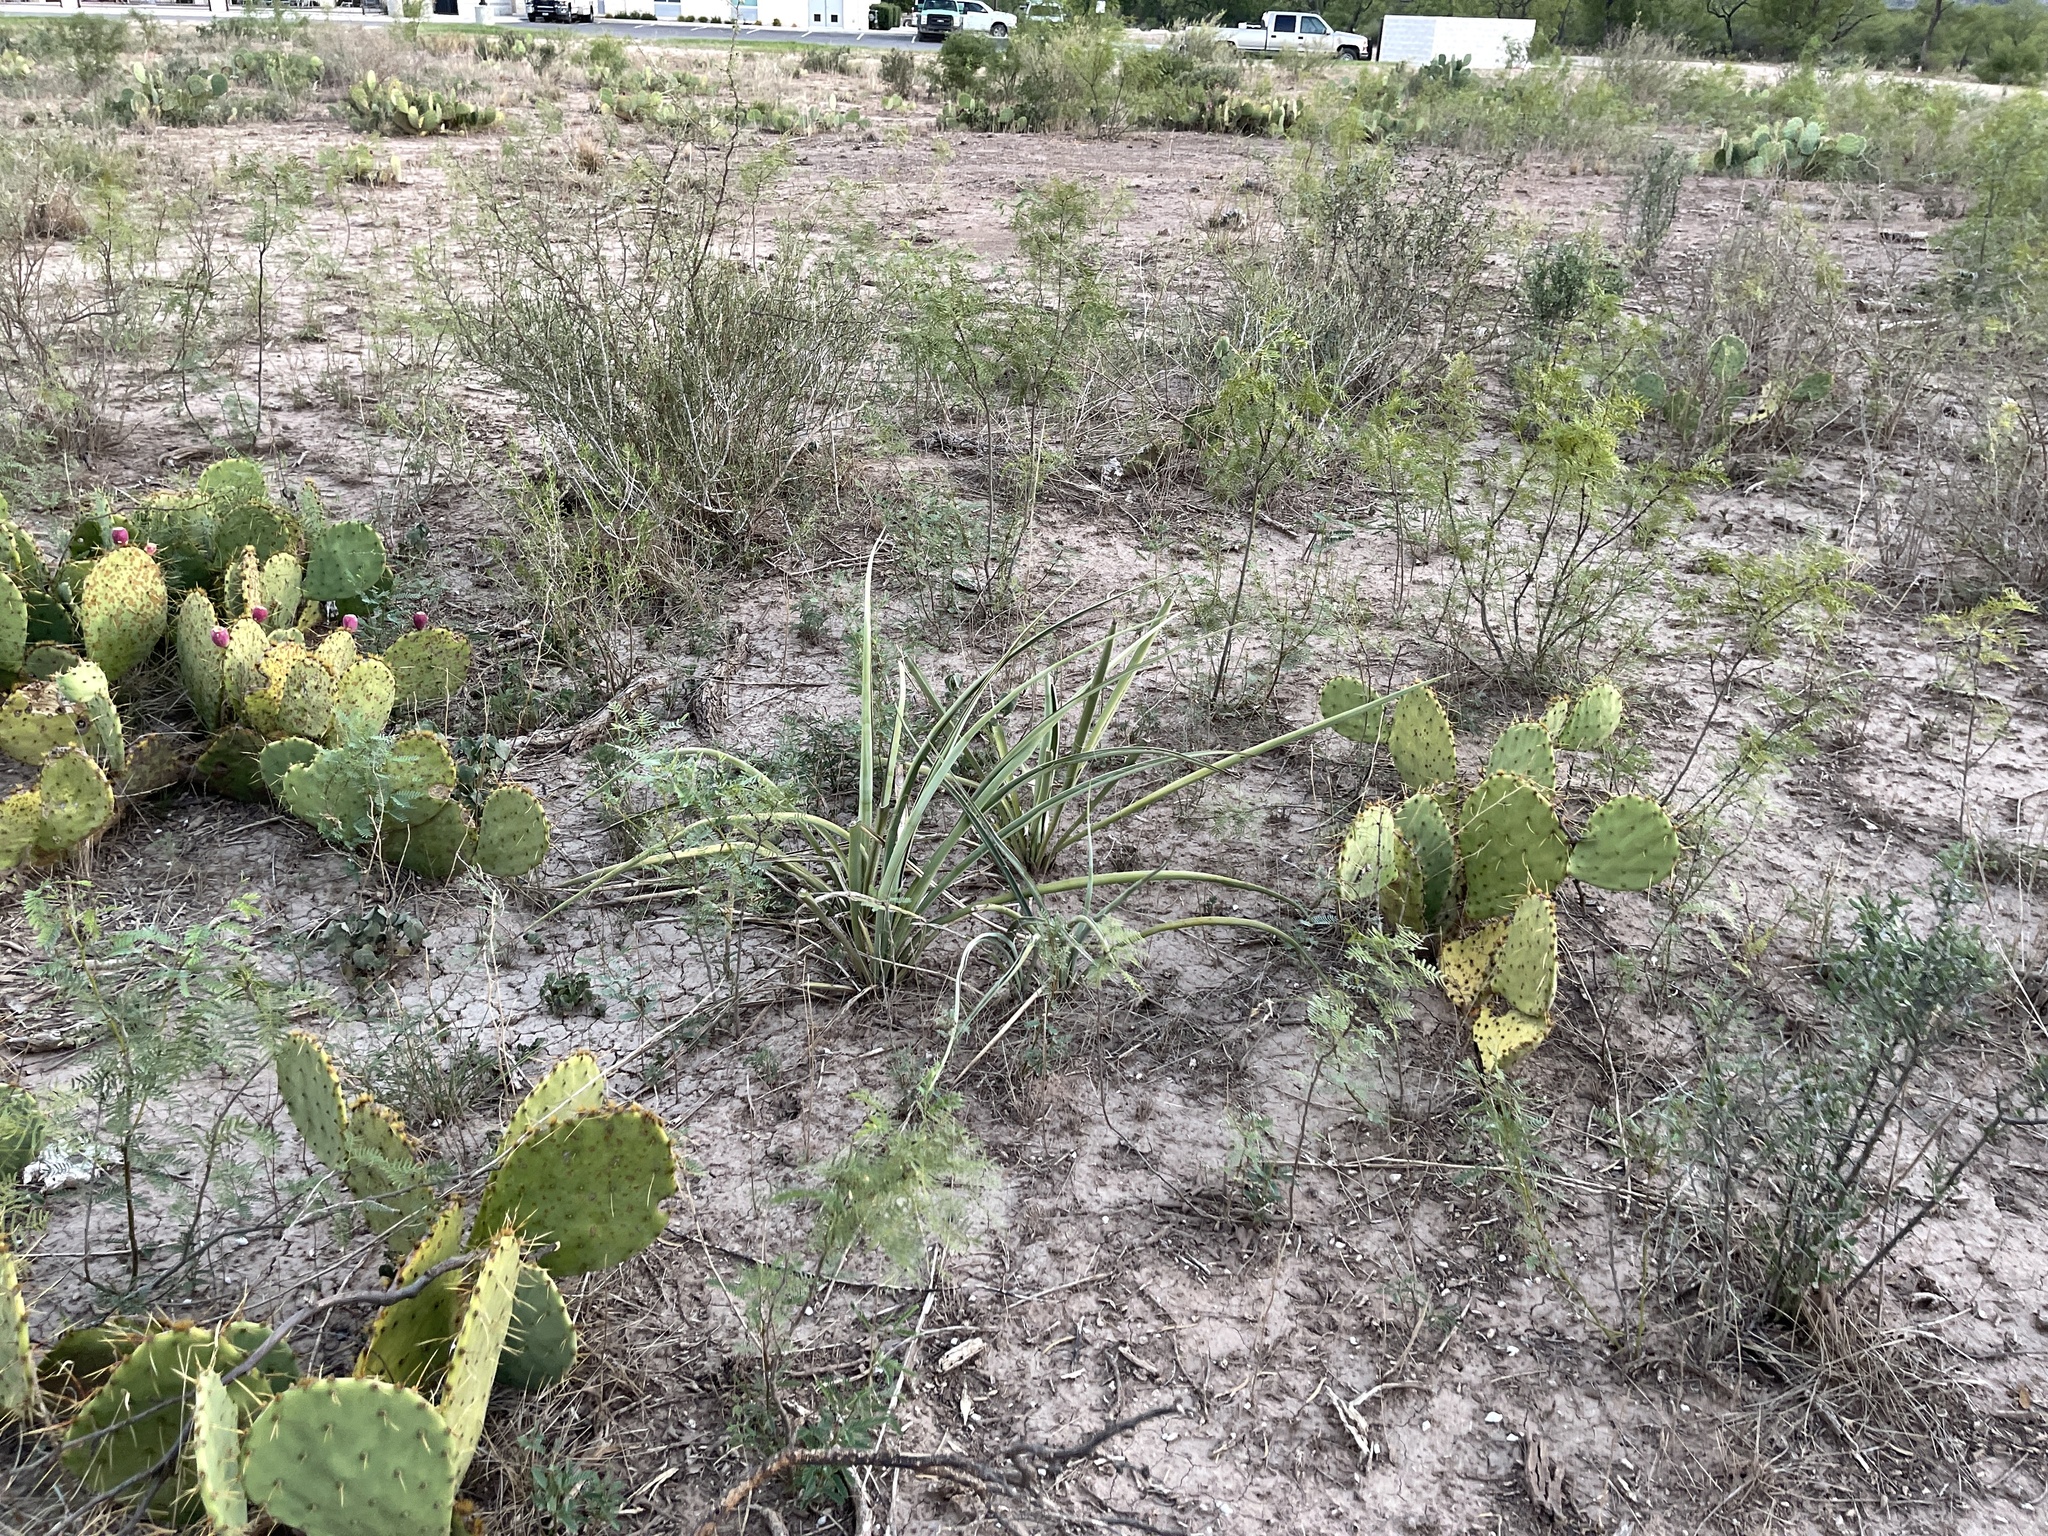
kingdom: Plantae
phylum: Tracheophyta
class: Liliopsida
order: Asparagales
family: Asparagaceae
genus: Yucca
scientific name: Yucca treculiana
